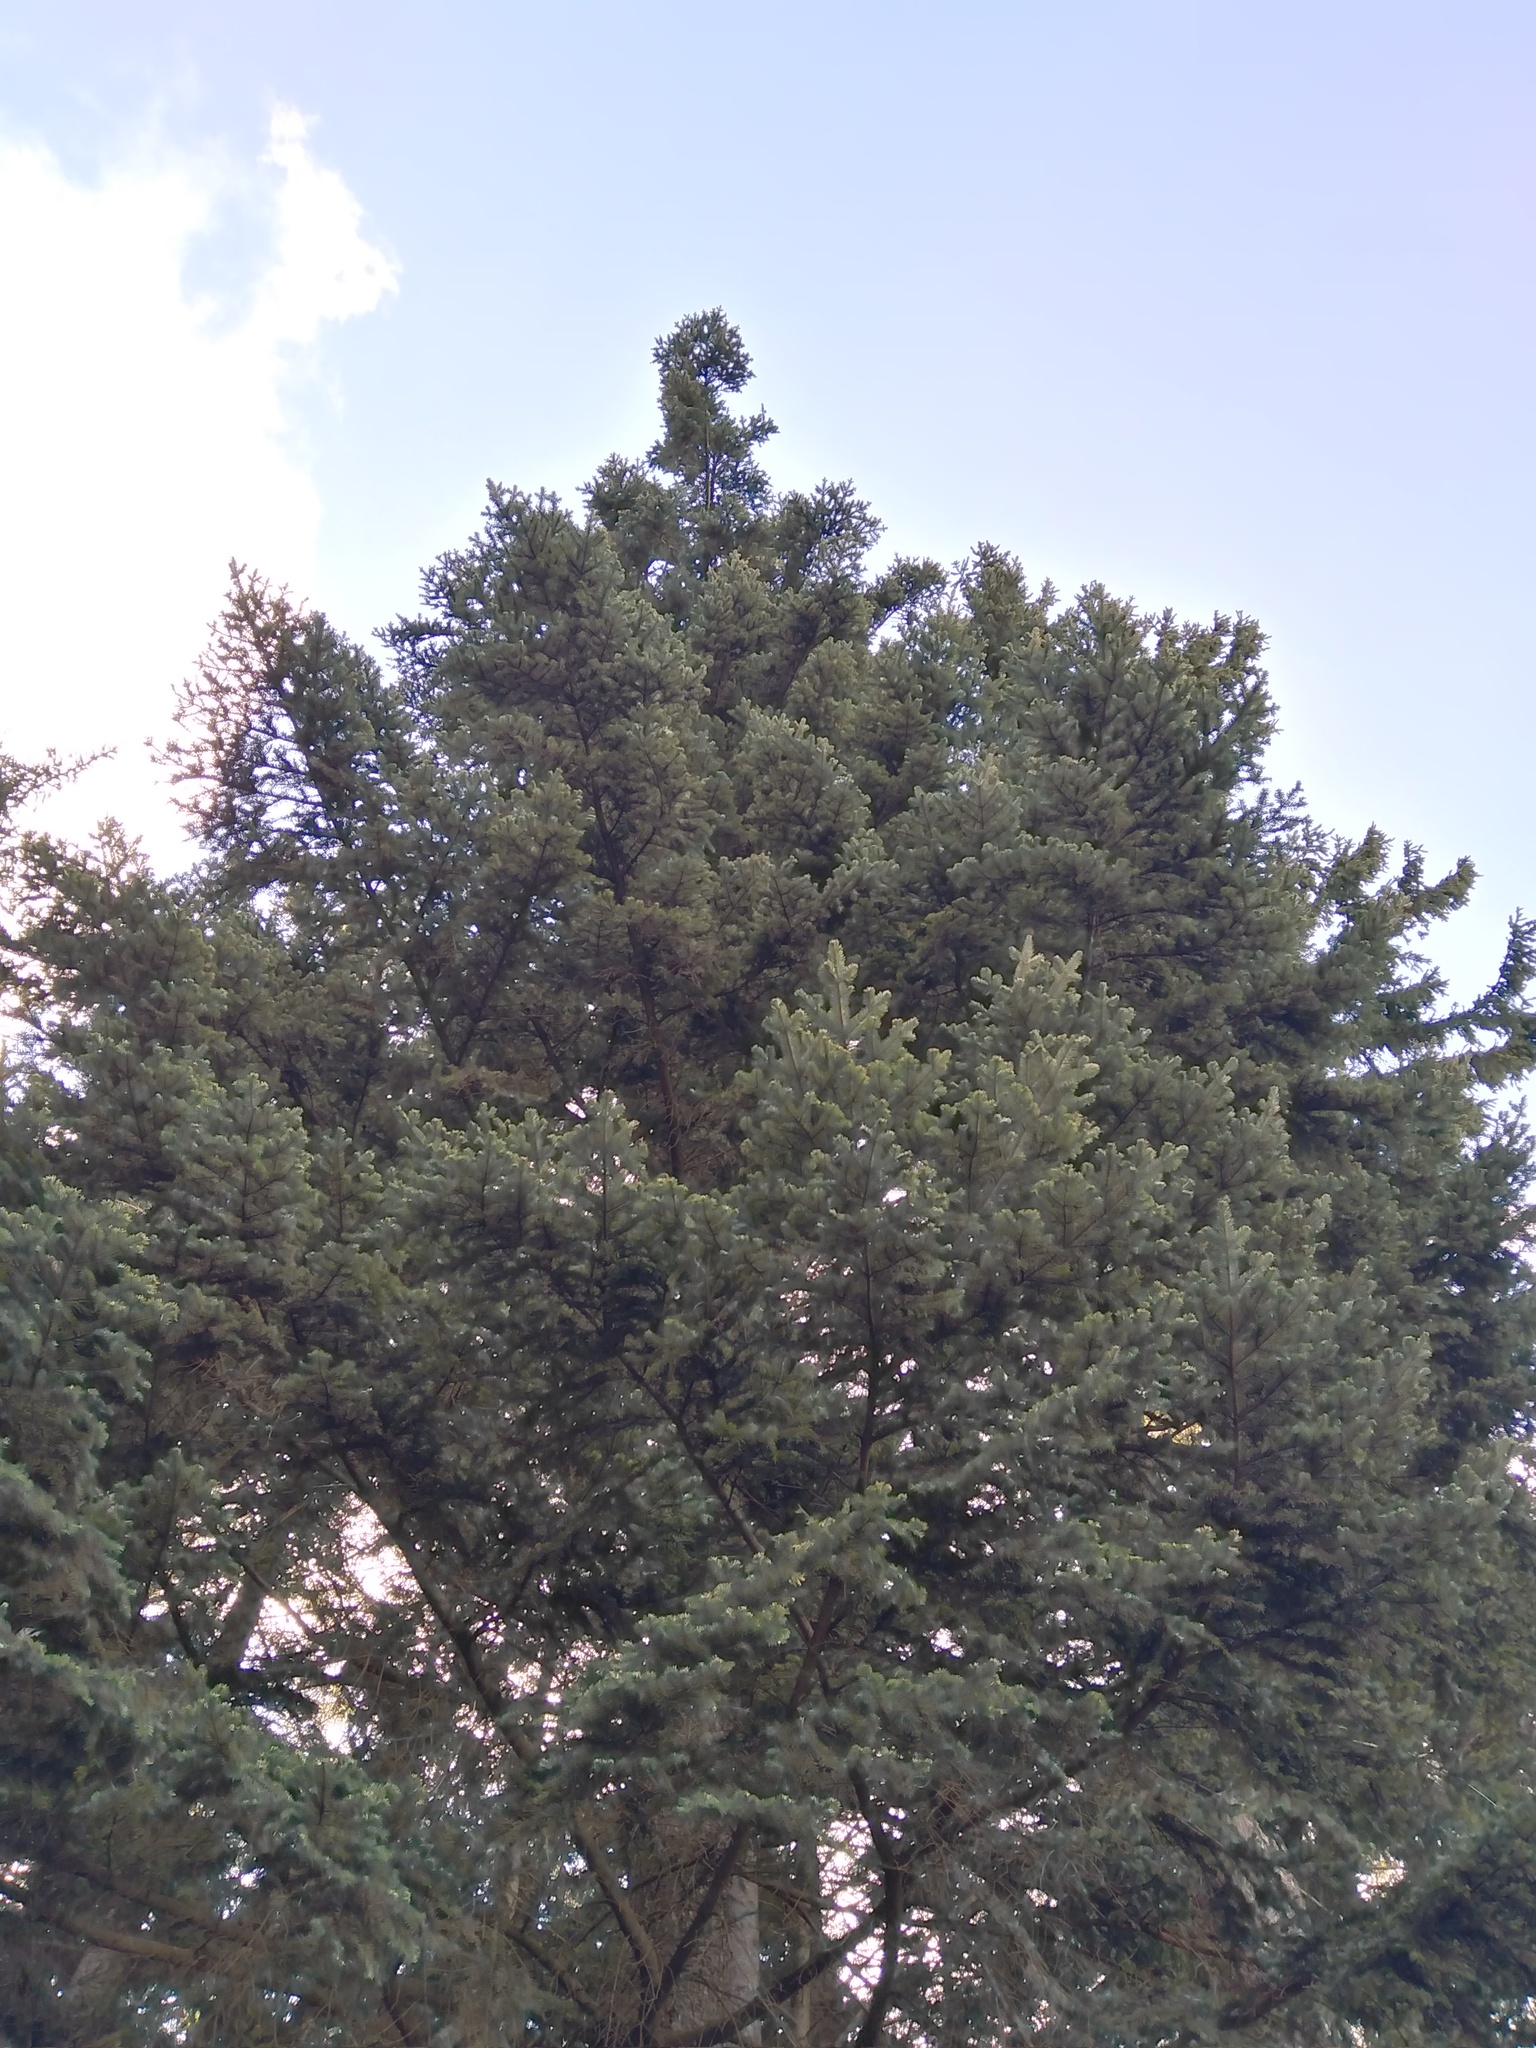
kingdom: Plantae
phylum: Tracheophyta
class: Pinopsida
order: Pinales
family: Pinaceae
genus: Abies
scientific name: Abies alba
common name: Silver fir
